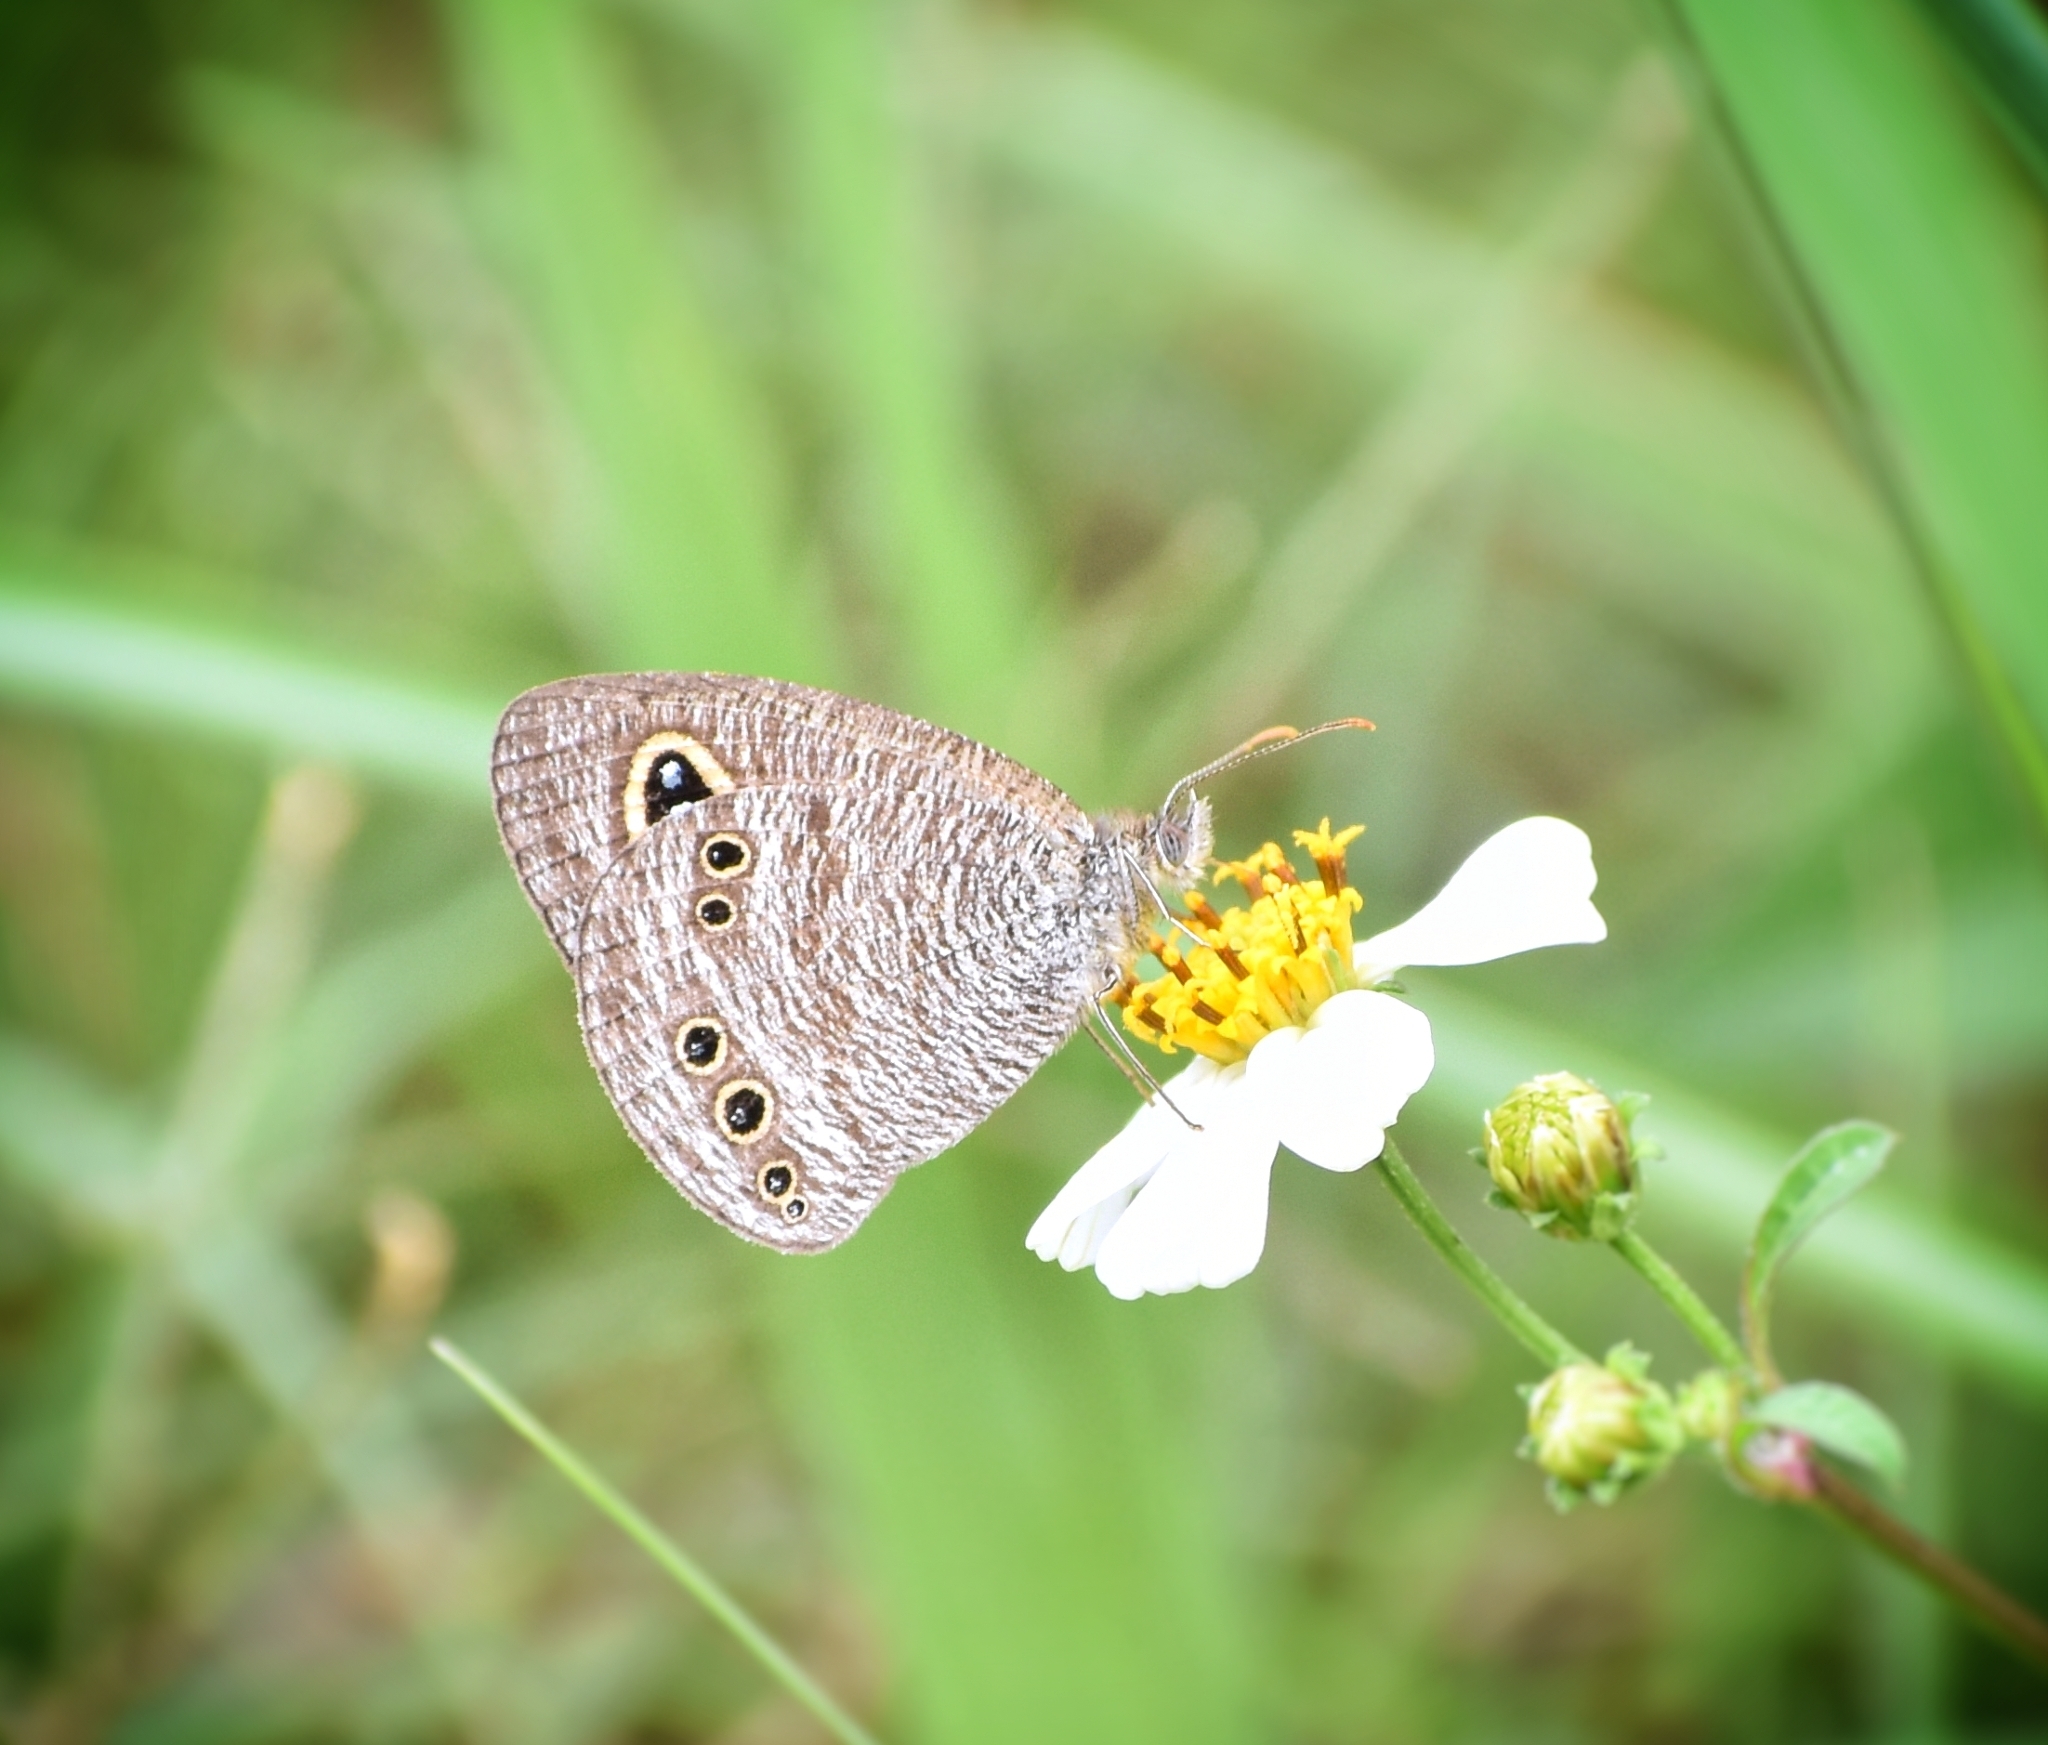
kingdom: Animalia
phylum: Arthropoda
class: Insecta
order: Lepidoptera
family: Nymphalidae
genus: Ypthima
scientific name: Ypthima lisandra
